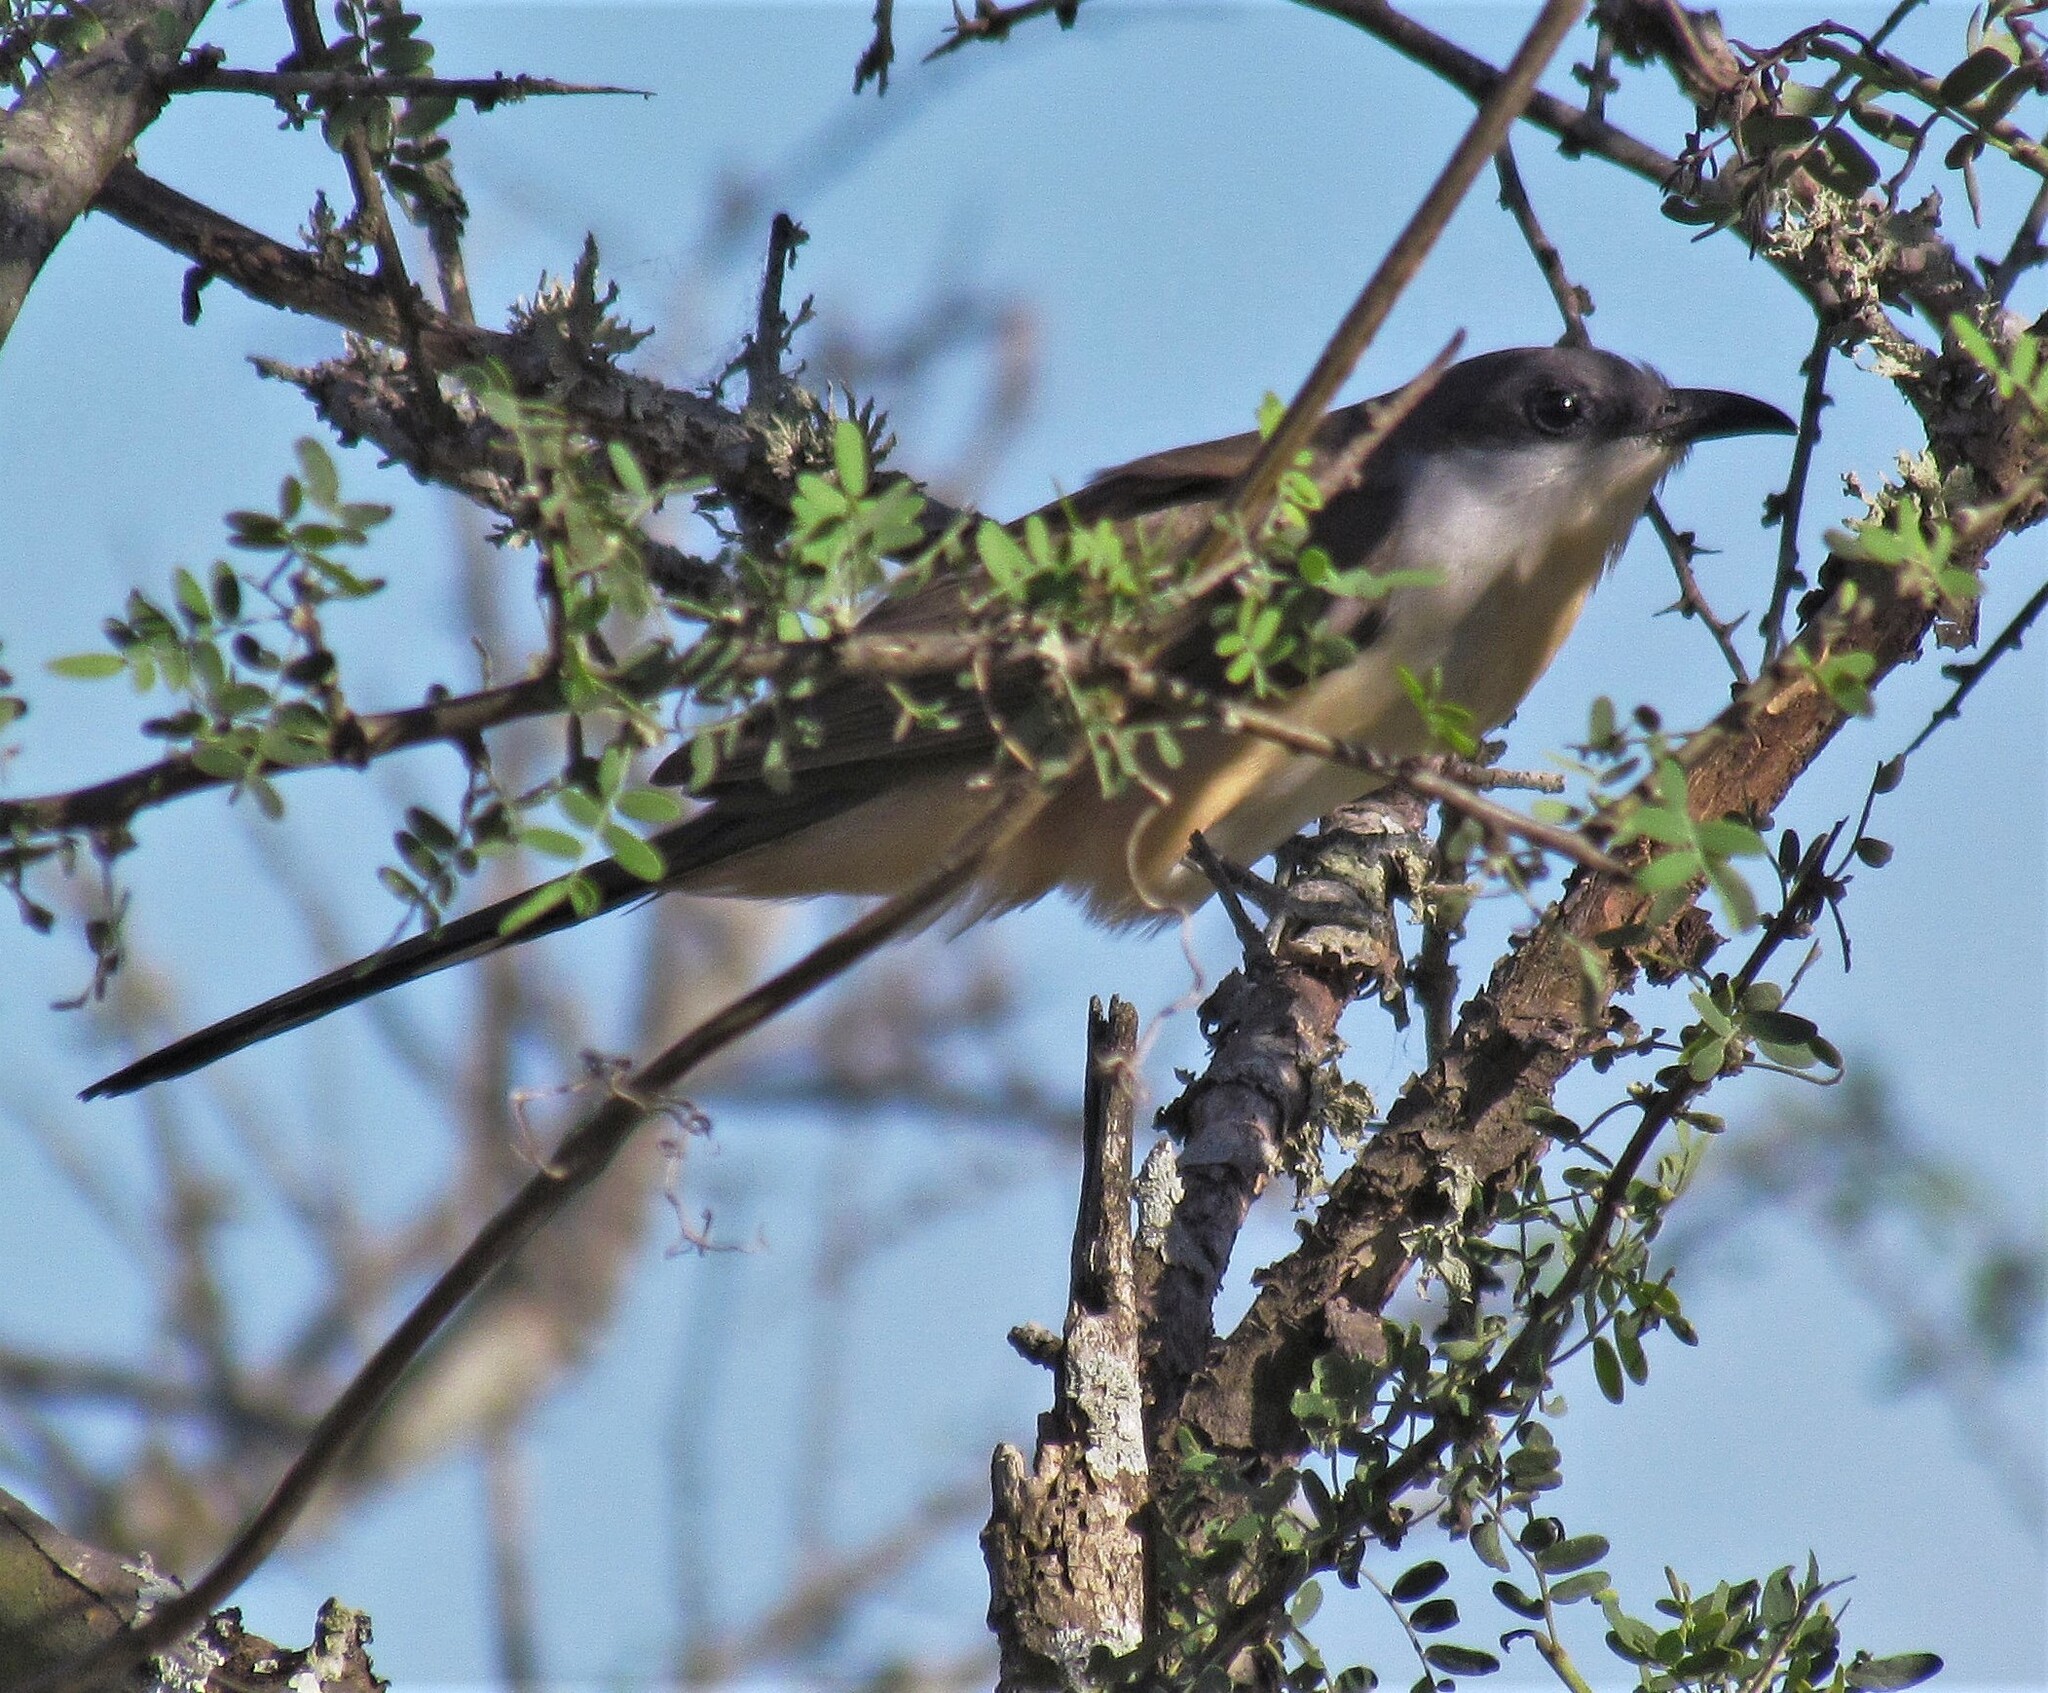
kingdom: Animalia
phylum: Chordata
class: Aves
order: Cuculiformes
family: Cuculidae
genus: Coccyzus
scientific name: Coccyzus melacoryphus
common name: Dark-billed cuckoo
